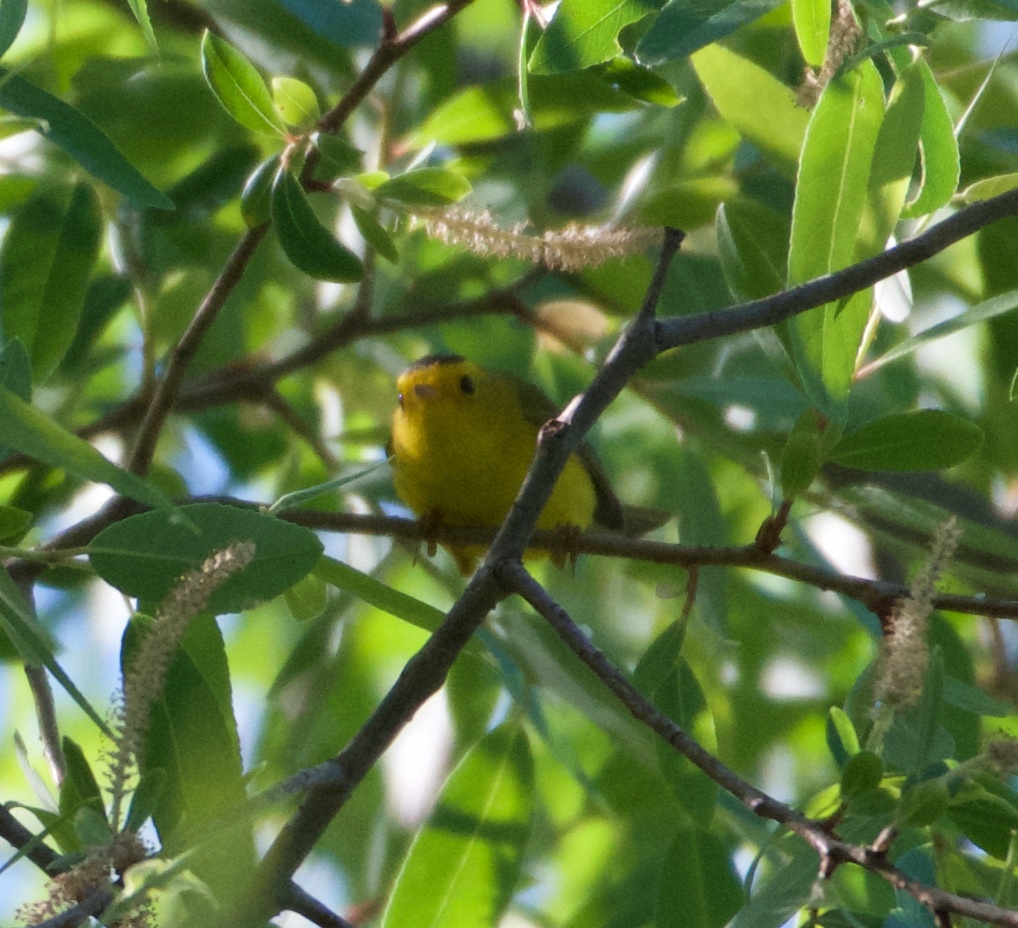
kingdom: Animalia
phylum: Chordata
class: Aves
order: Passeriformes
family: Parulidae
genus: Cardellina
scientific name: Cardellina pusilla
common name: Wilson's warbler
